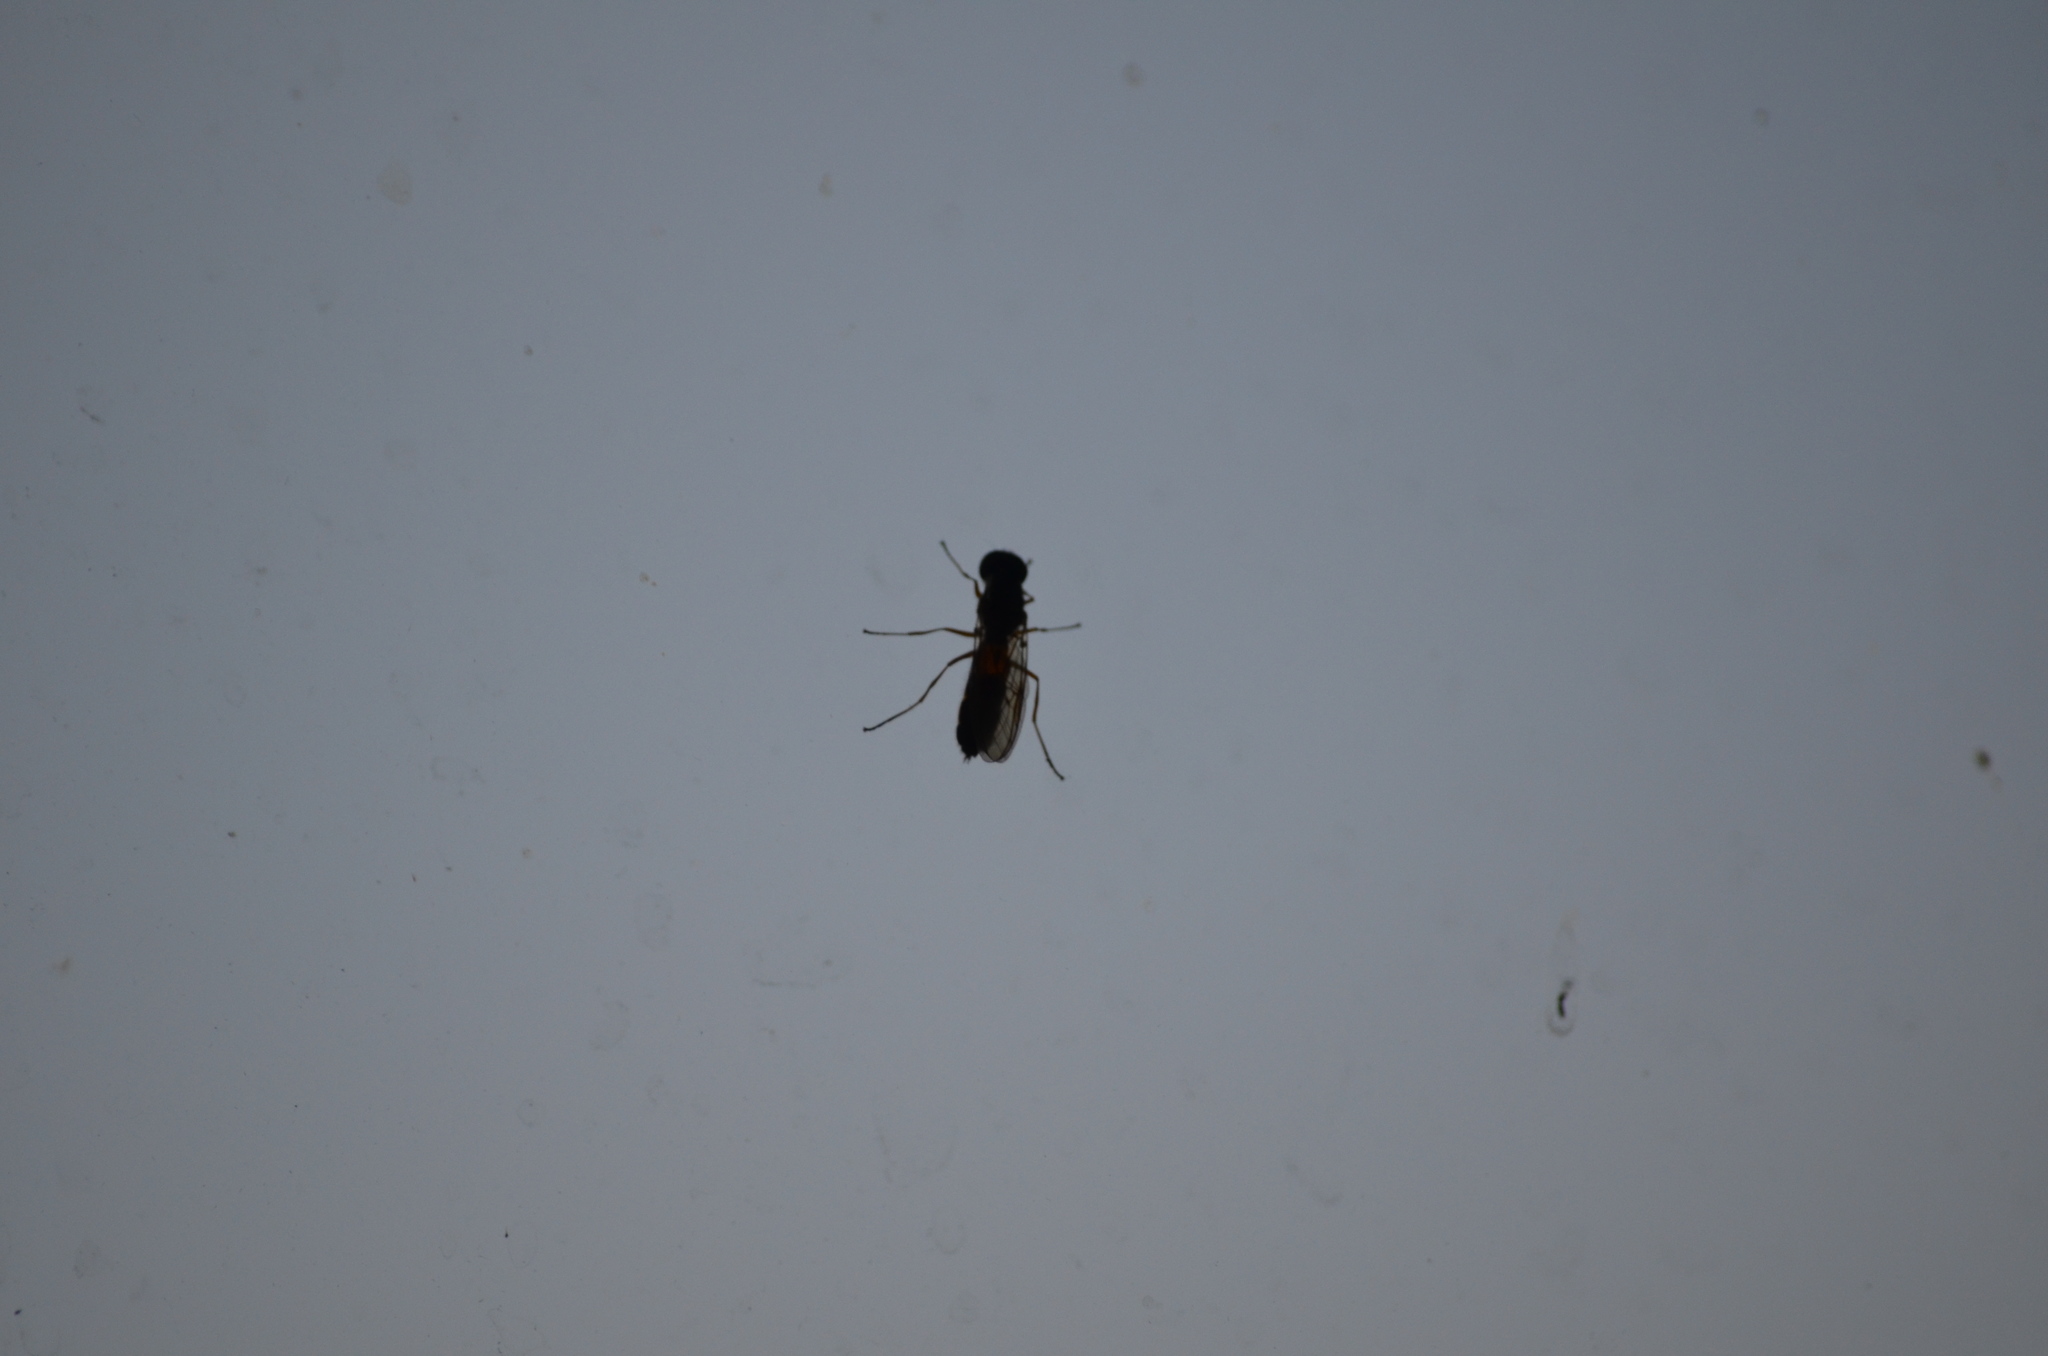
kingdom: Animalia
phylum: Arthropoda
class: Insecta
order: Diptera
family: Stratiomyidae
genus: Sargus
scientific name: Sargus bipunctatus
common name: Twin-spot centurion
